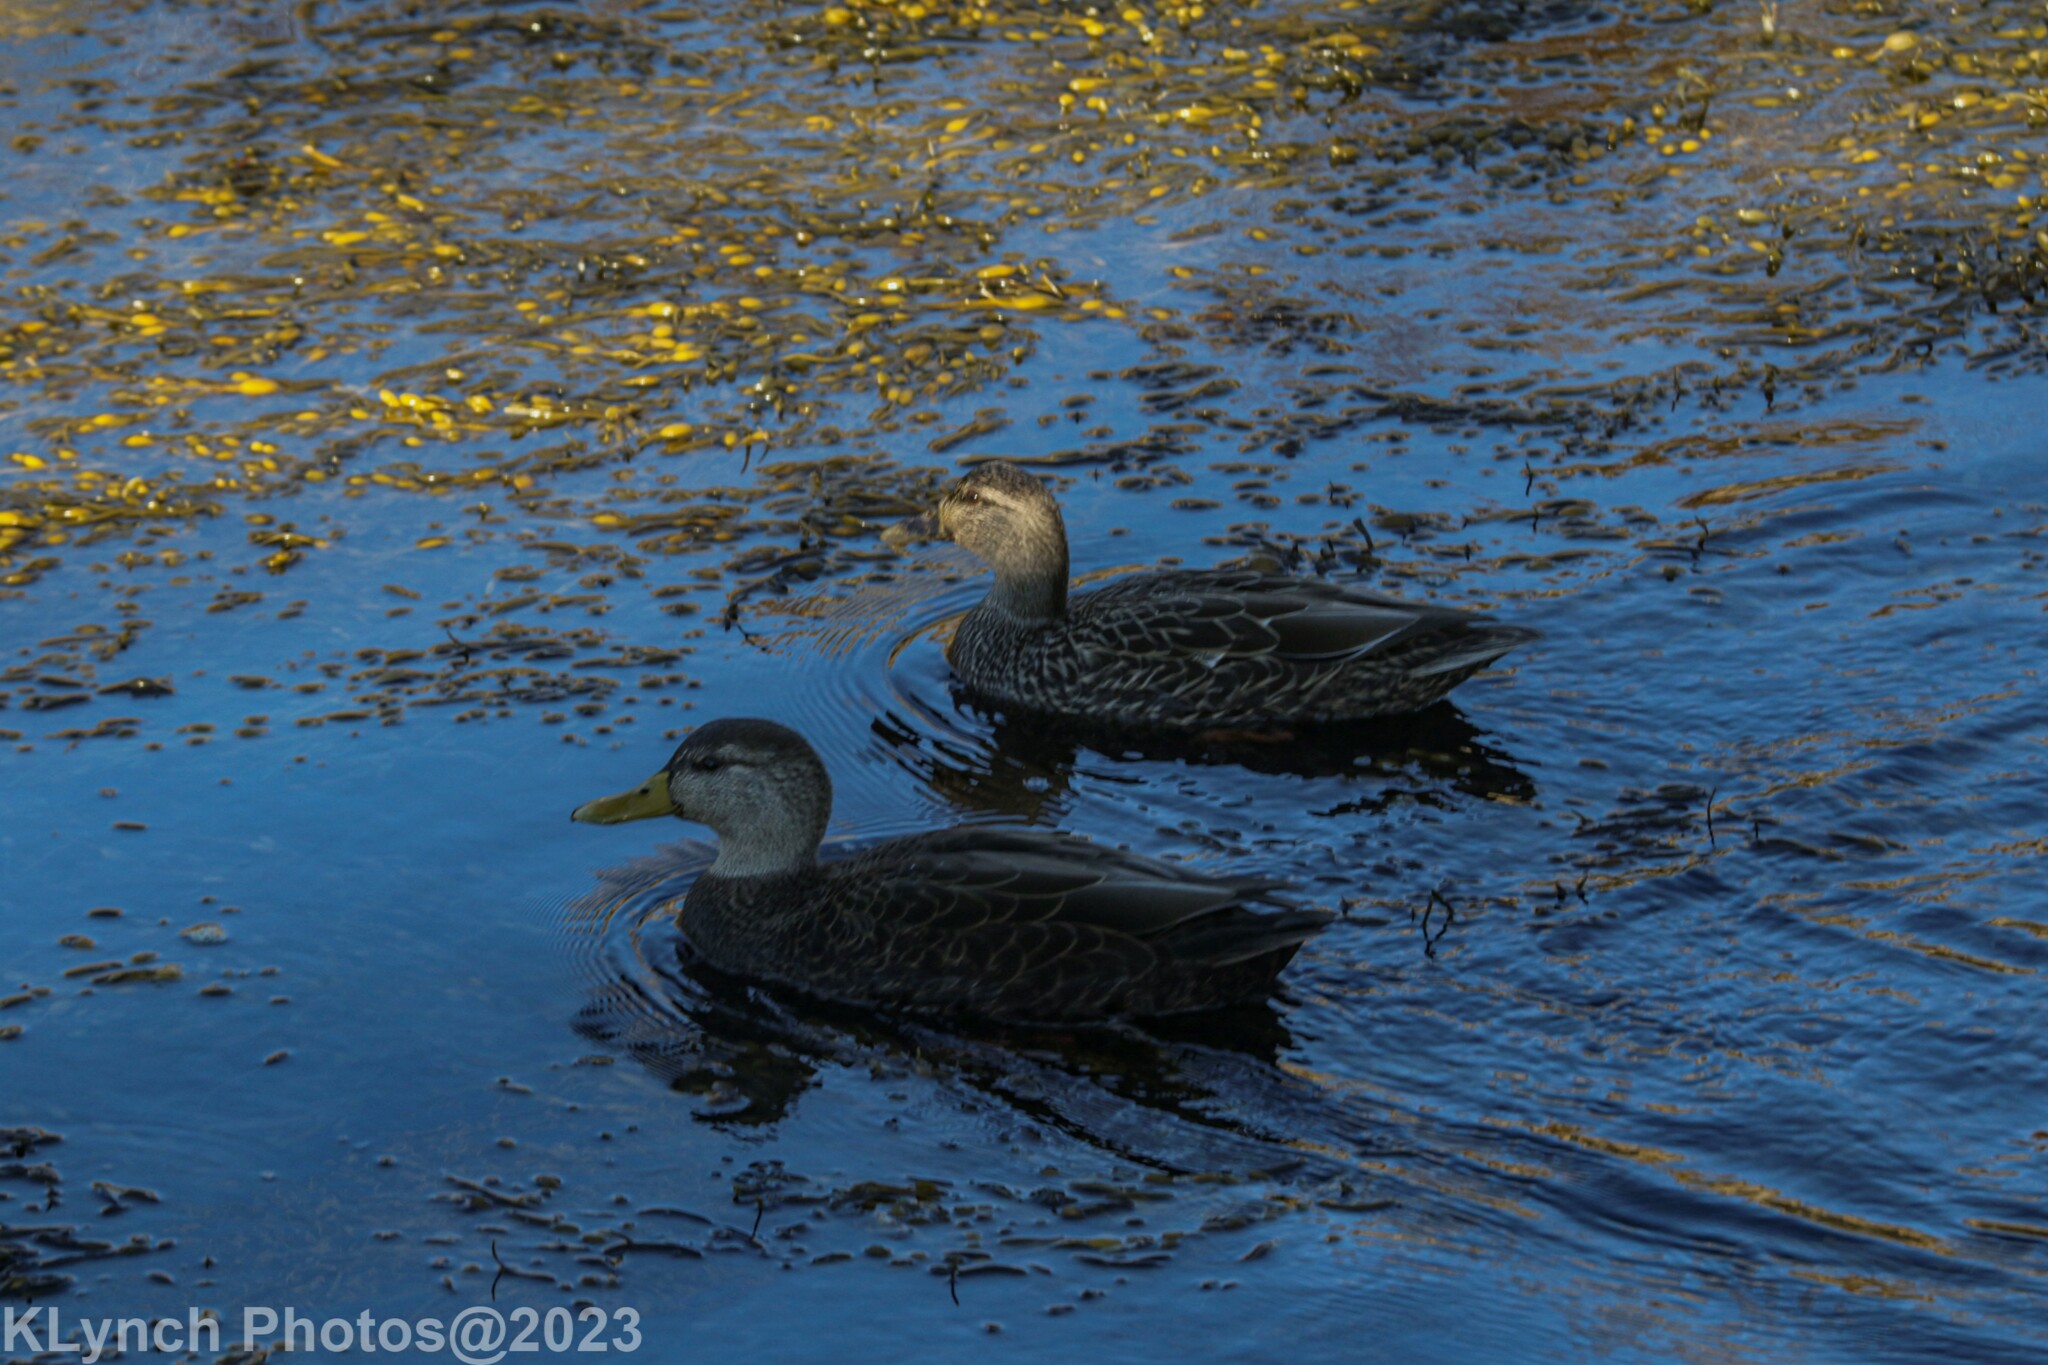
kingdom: Animalia
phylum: Chordata
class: Aves
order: Anseriformes
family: Anatidae
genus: Anas
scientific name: Anas rubripes
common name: American black duck
